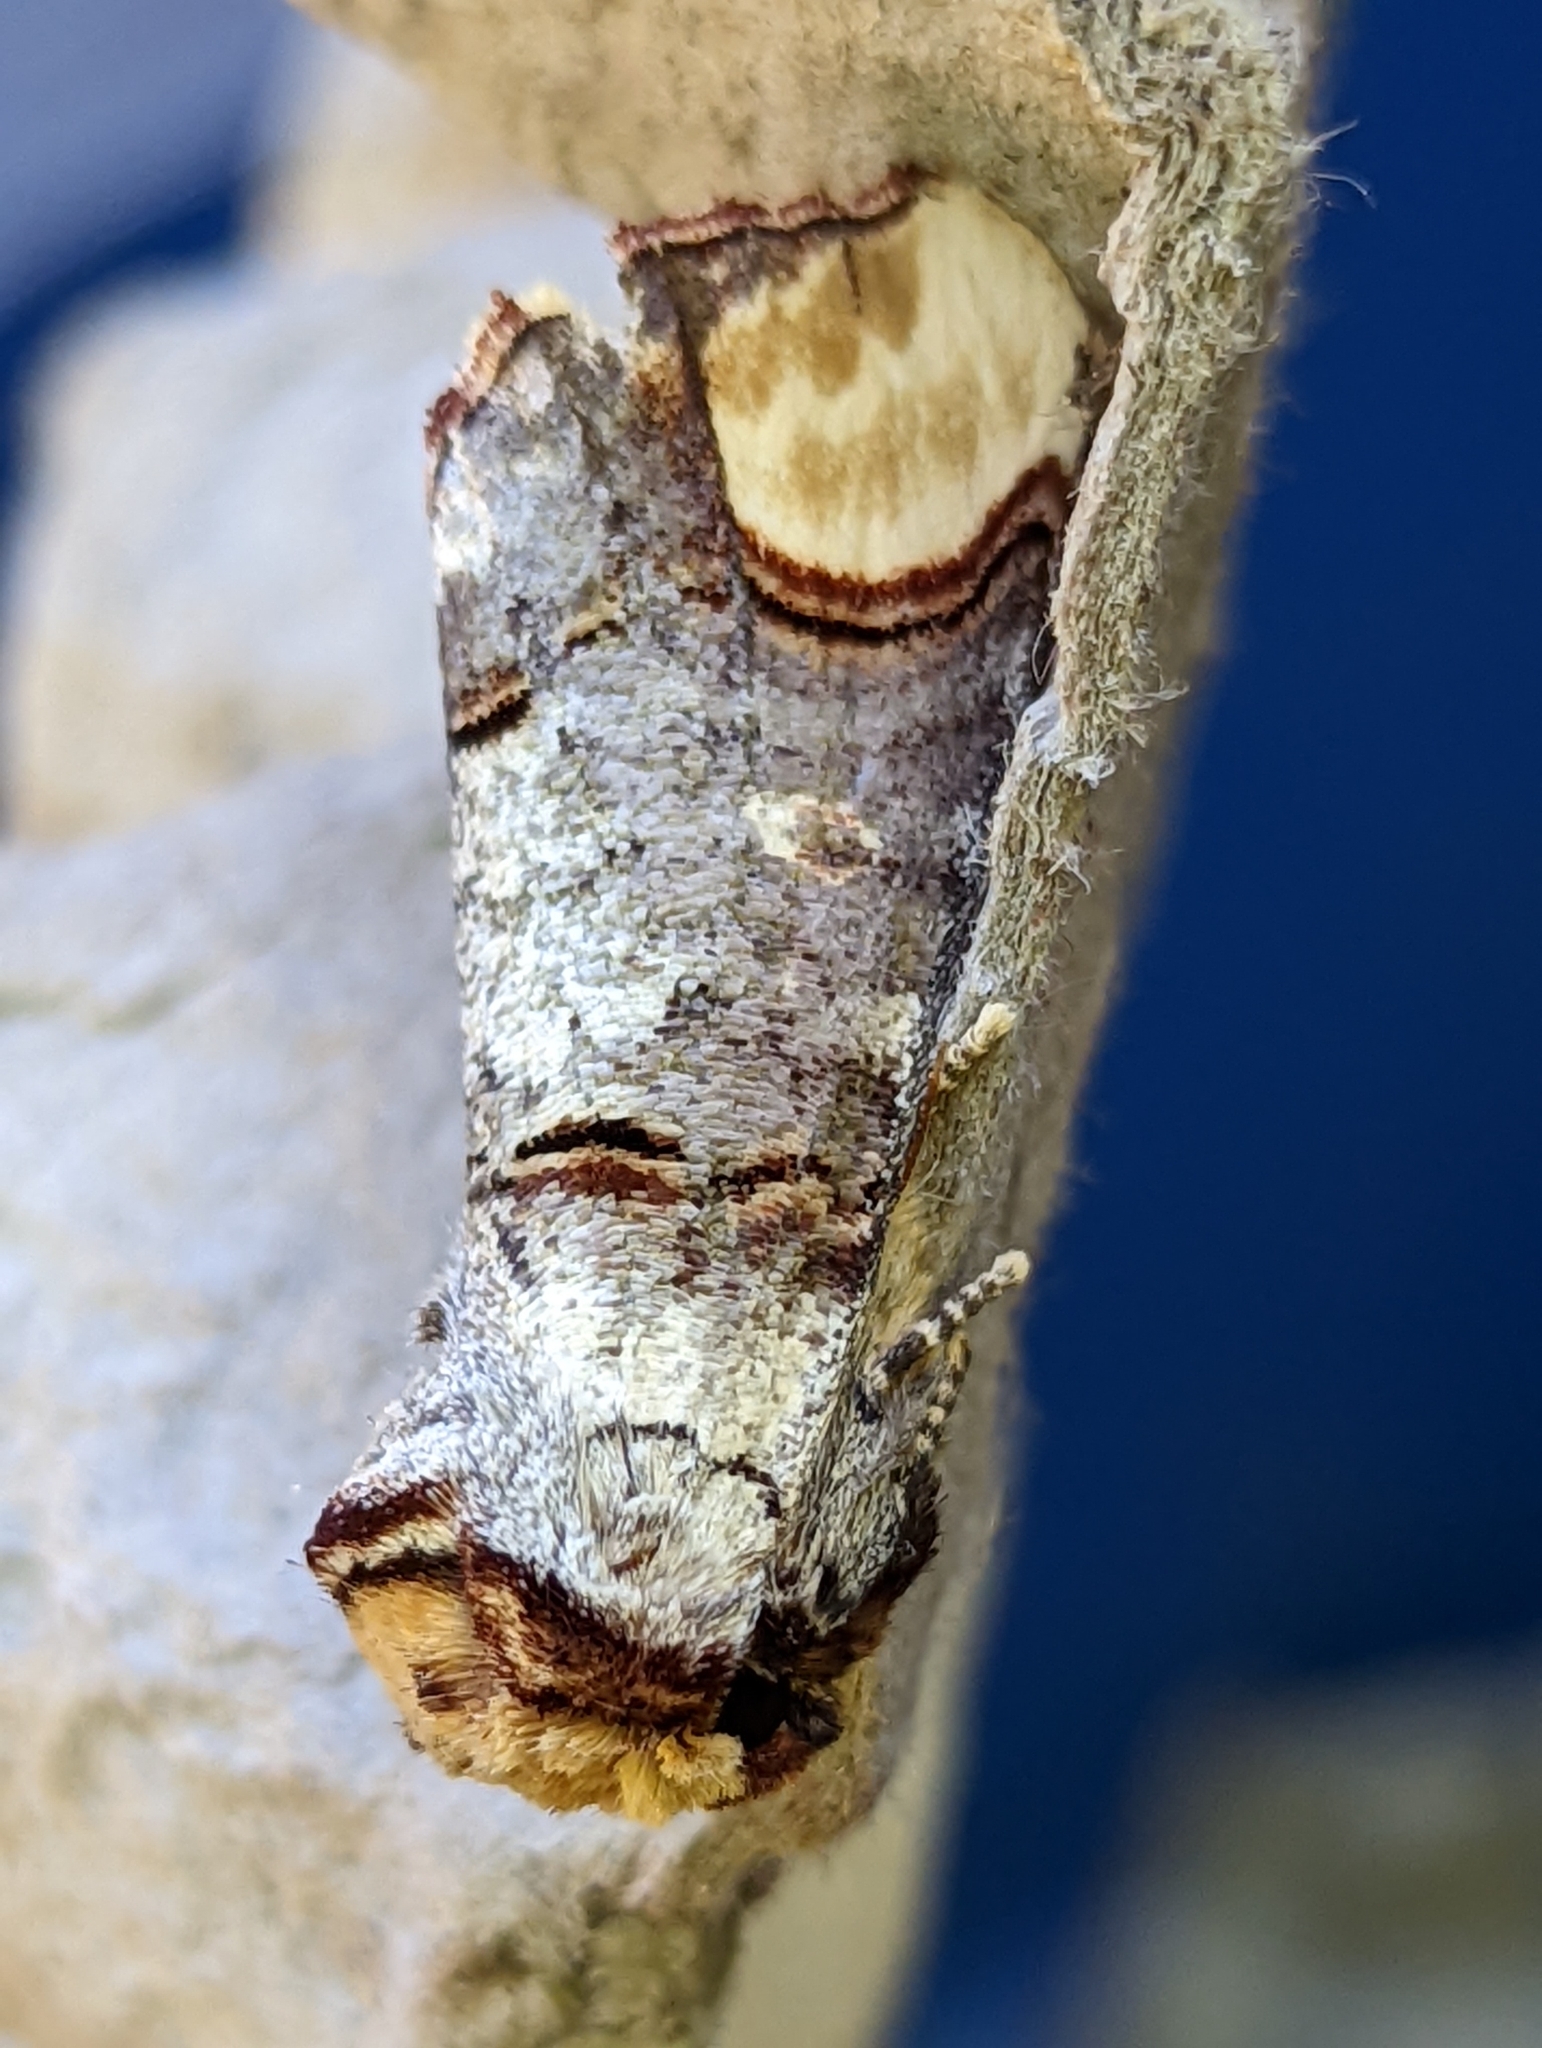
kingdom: Animalia
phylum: Arthropoda
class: Insecta
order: Lepidoptera
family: Notodontidae
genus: Phalera
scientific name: Phalera bucephala
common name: Buff-tip
